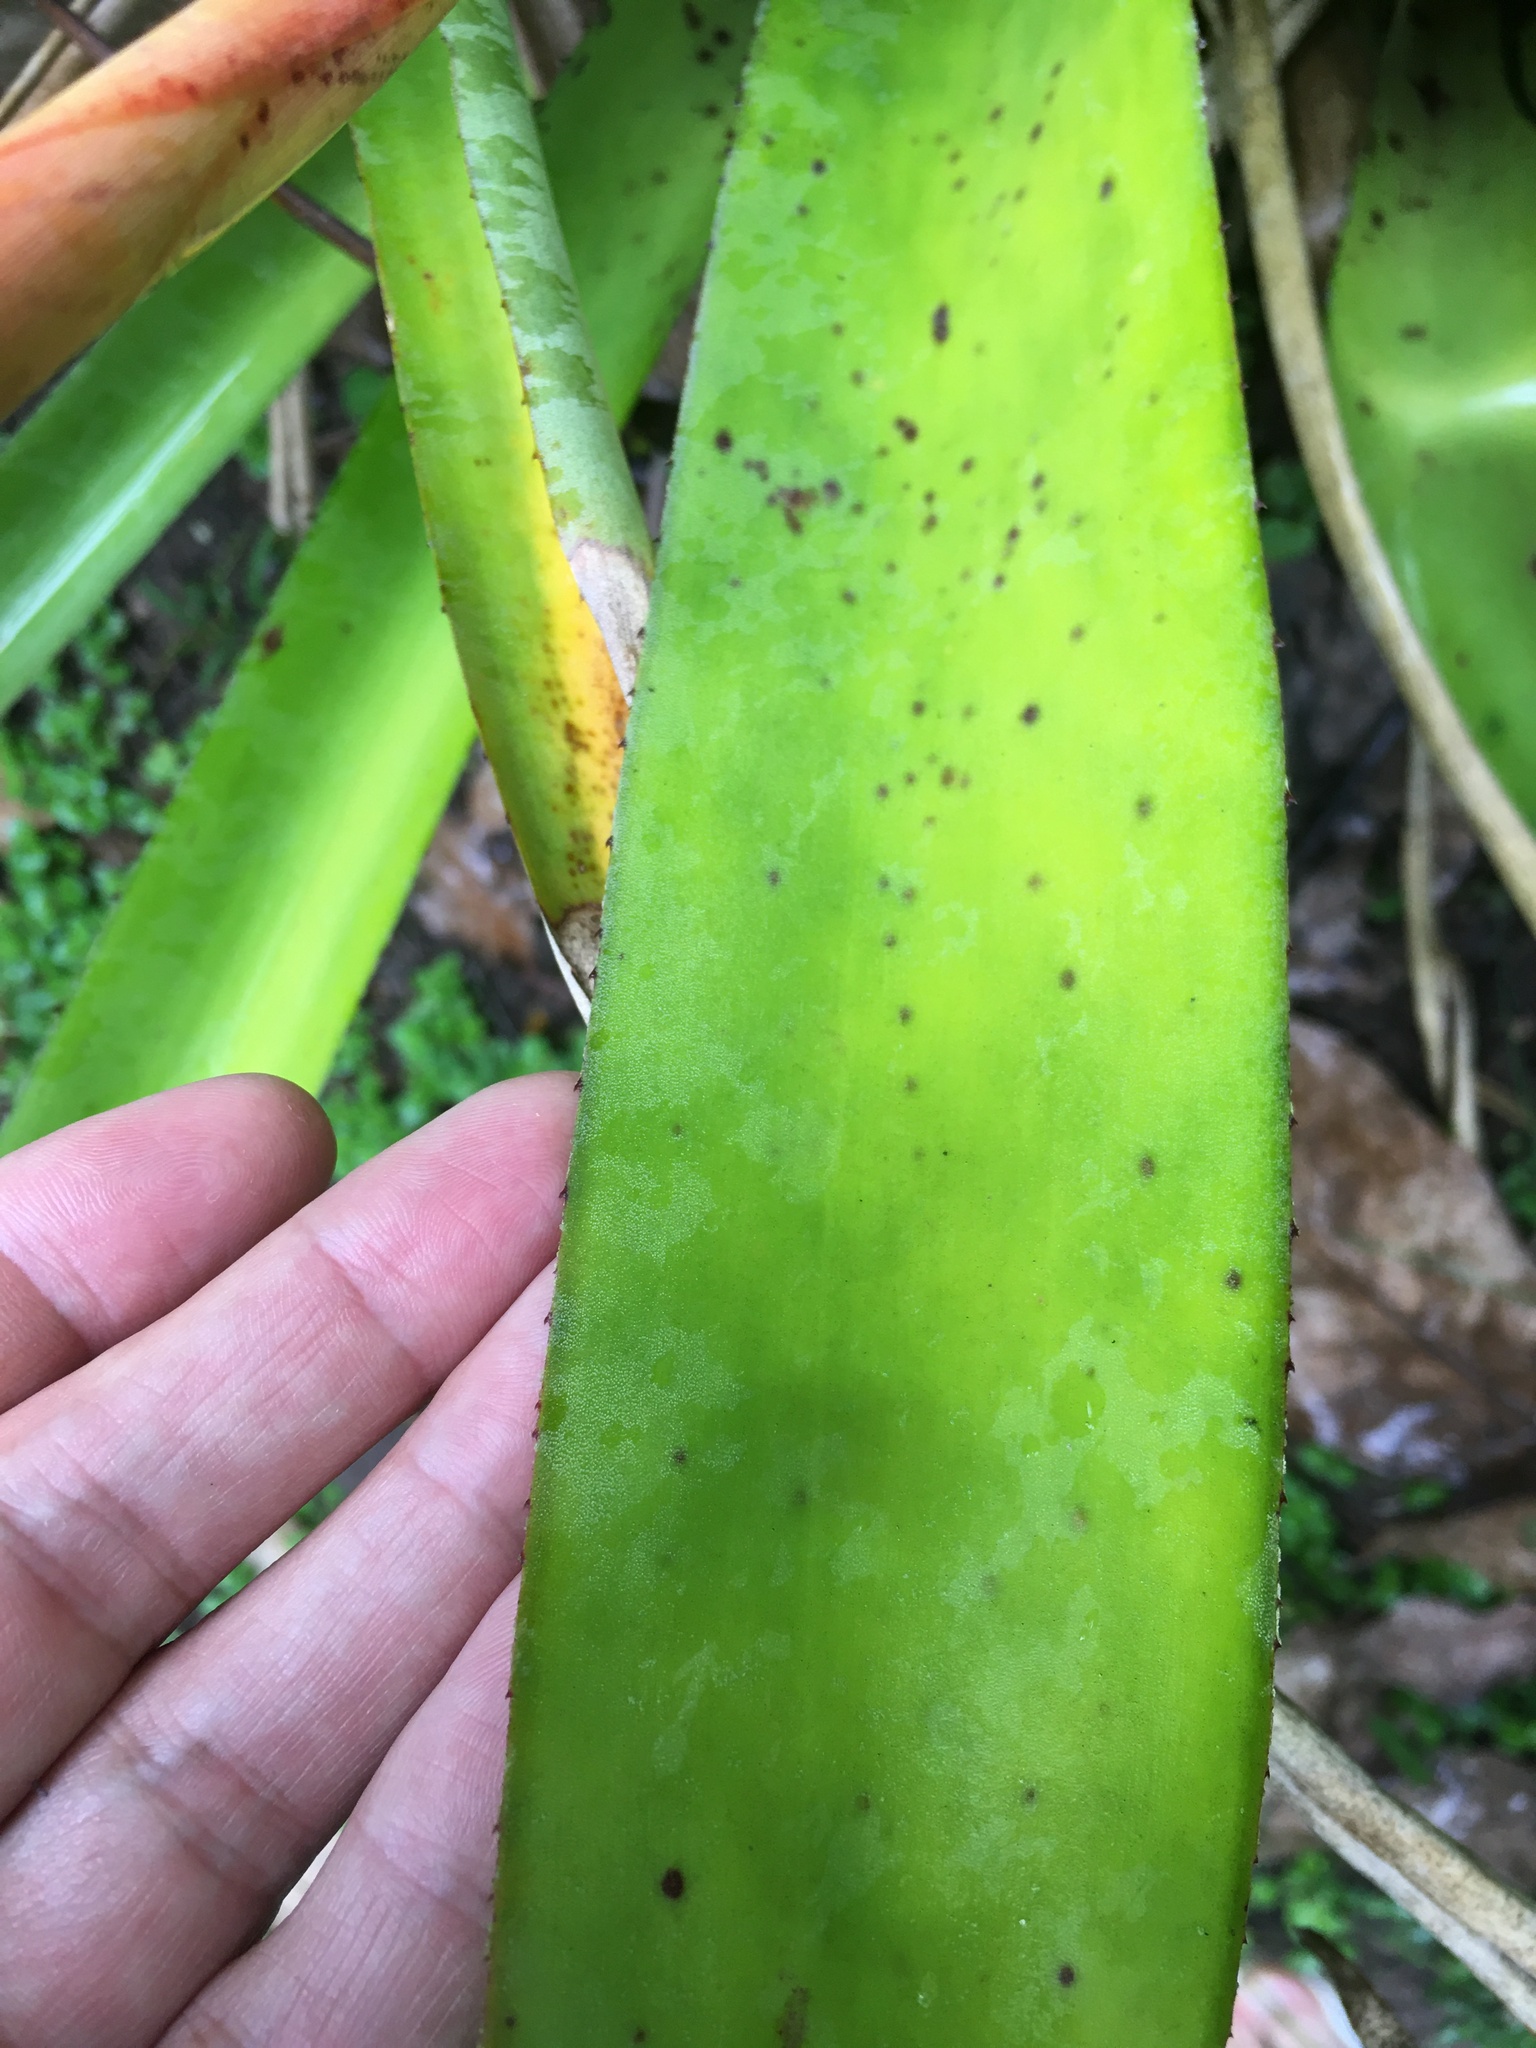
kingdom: Plantae
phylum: Tracheophyta
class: Liliopsida
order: Poales
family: Bromeliaceae
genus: Aechmea
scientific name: Aechmea catendensis
